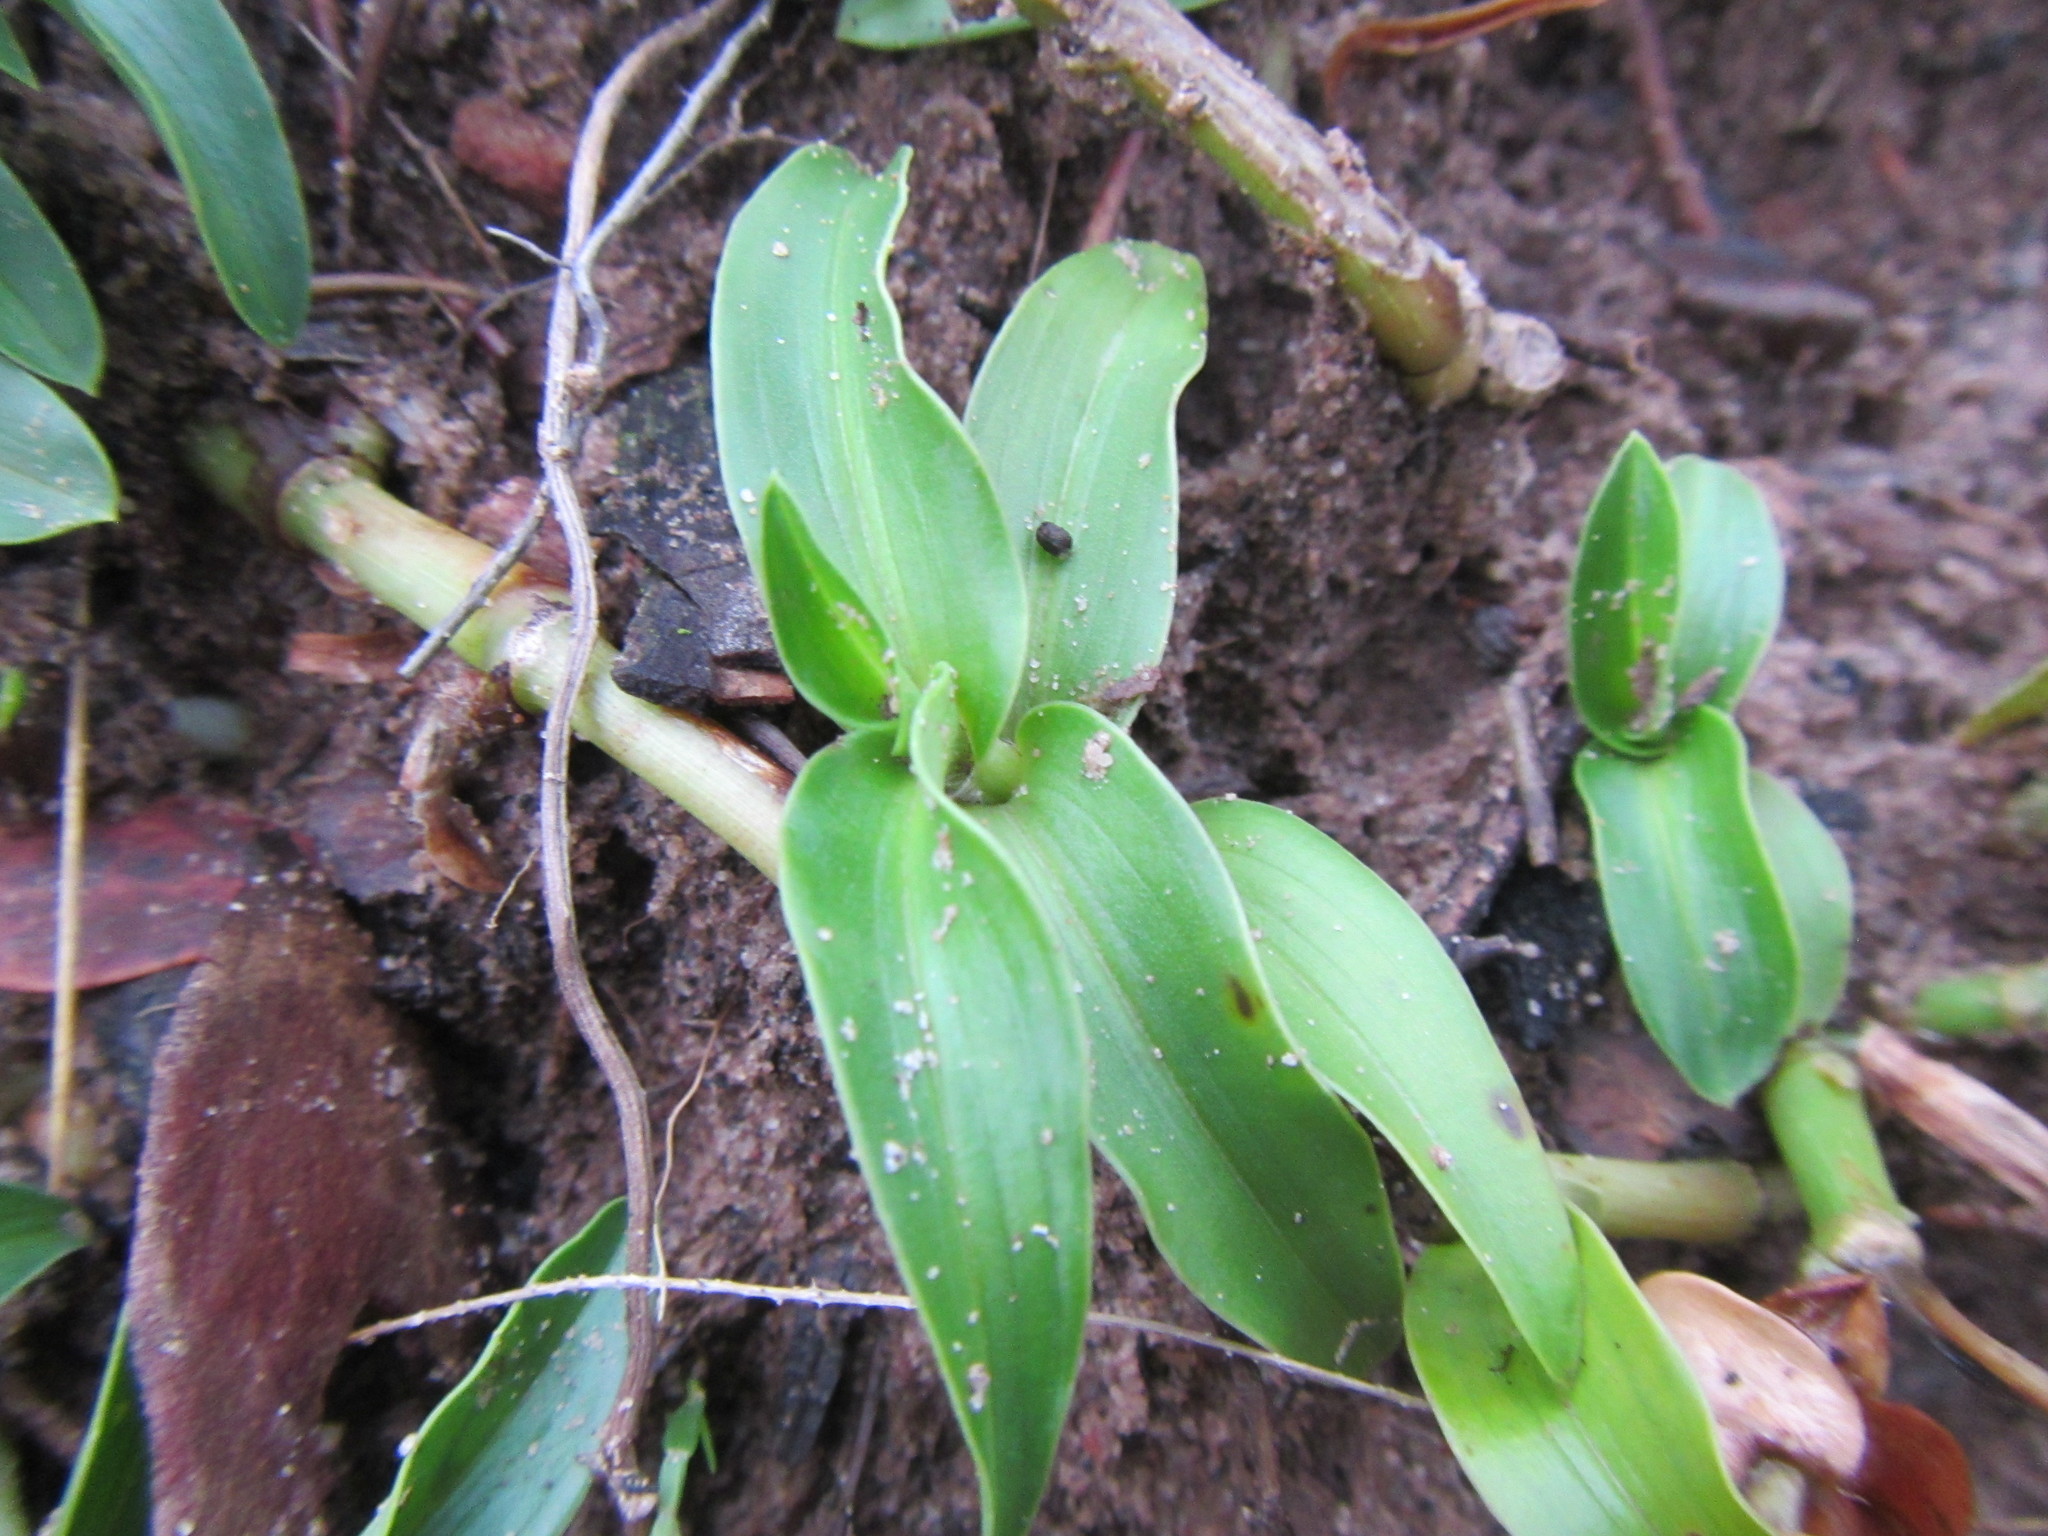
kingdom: Plantae
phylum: Tracheophyta
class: Liliopsida
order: Commelinales
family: Commelinaceae
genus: Commelina
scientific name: Commelina africana
